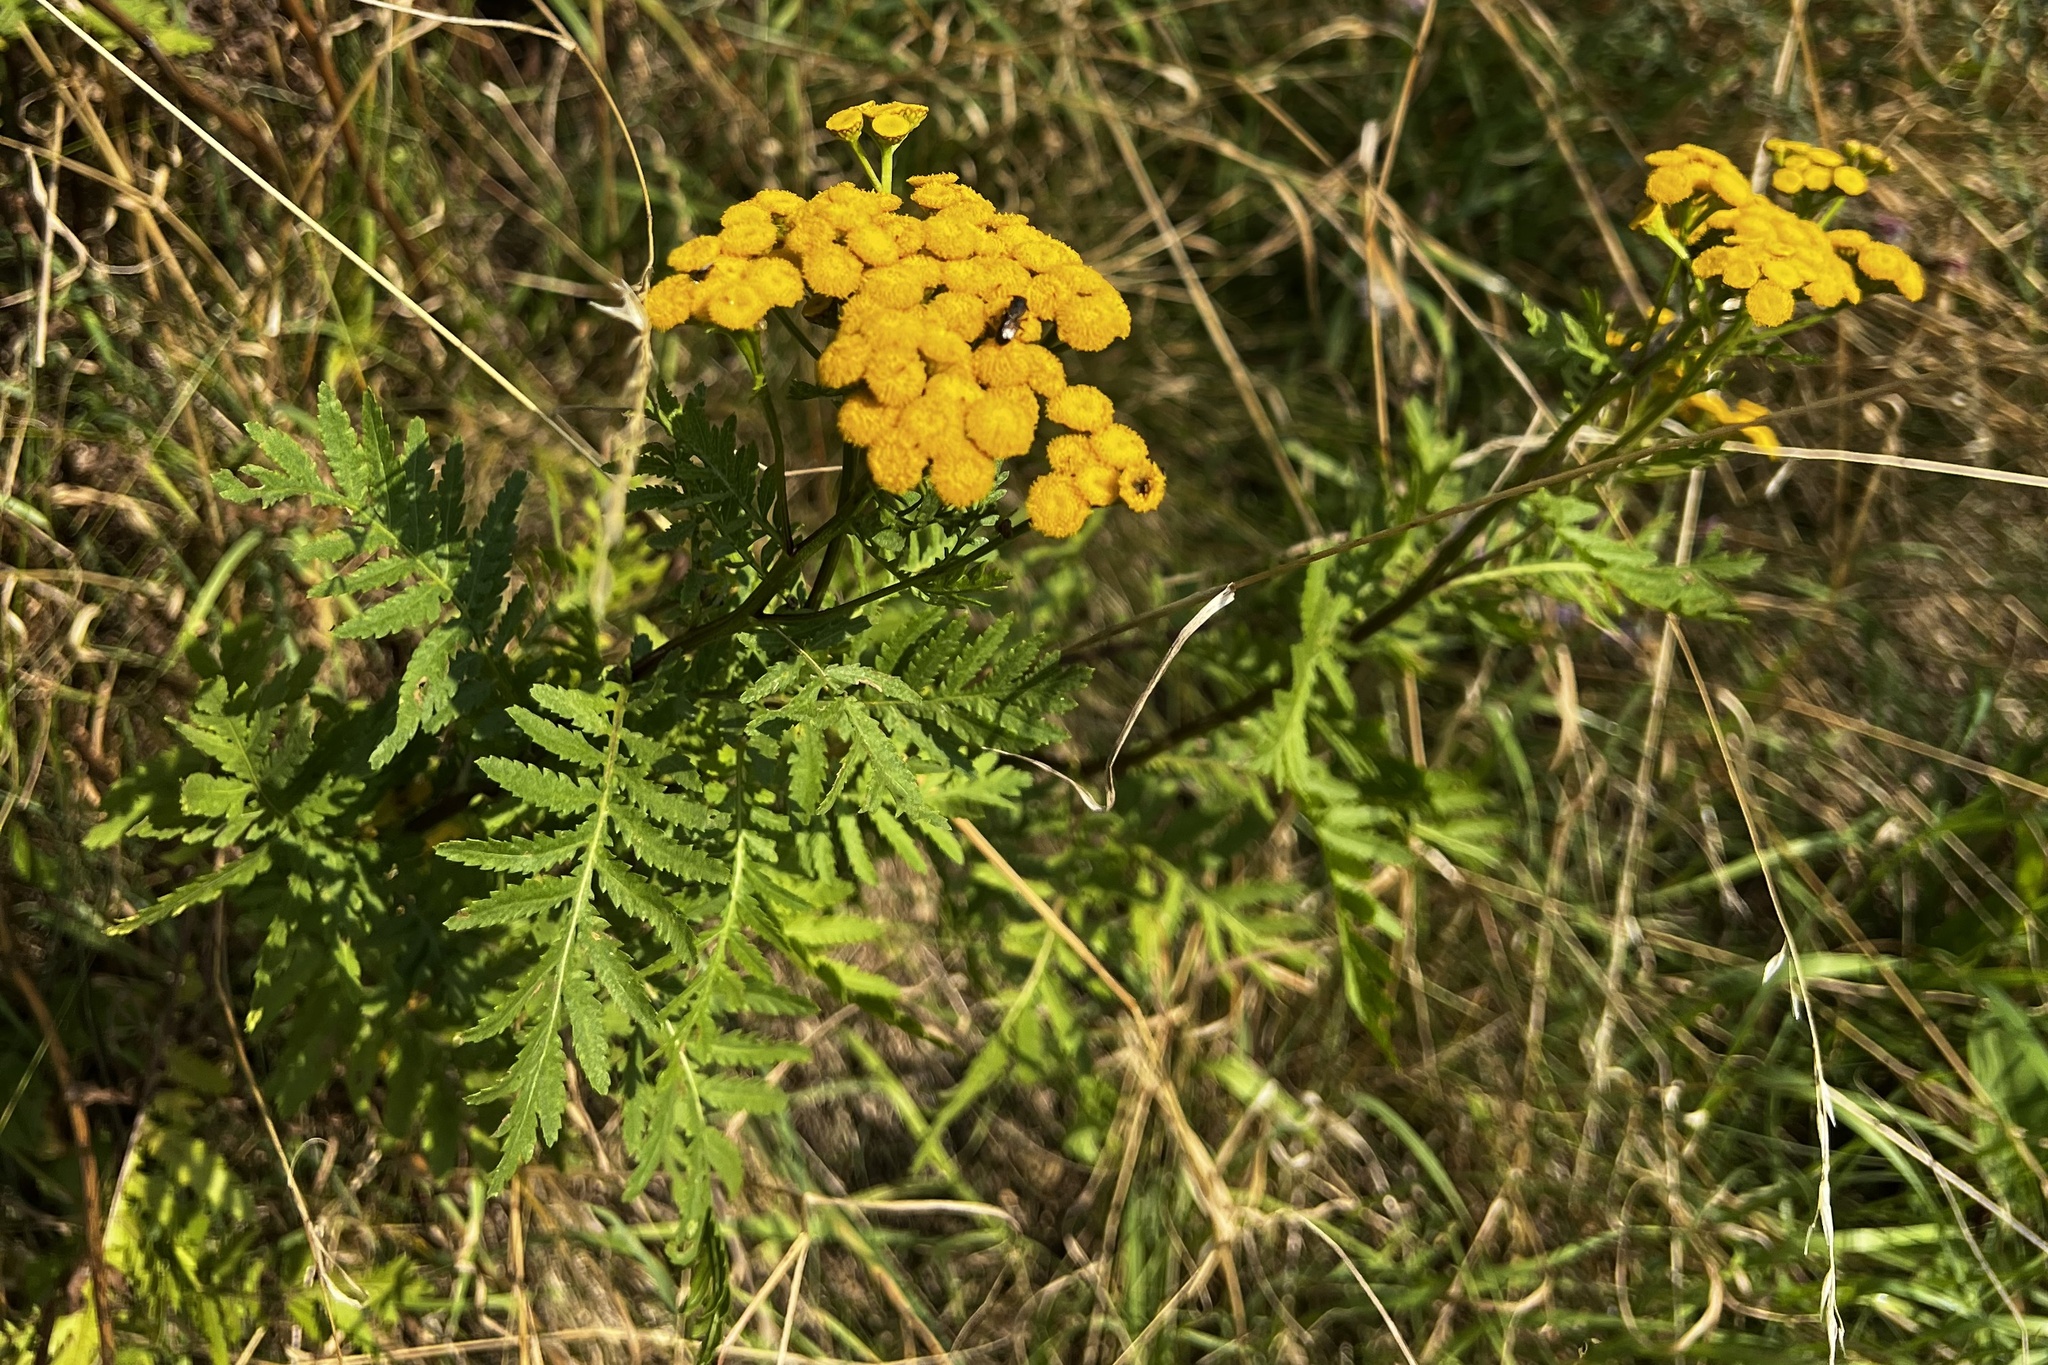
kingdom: Plantae
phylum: Tracheophyta
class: Magnoliopsida
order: Asterales
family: Asteraceae
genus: Tanacetum
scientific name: Tanacetum vulgare
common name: Common tansy
